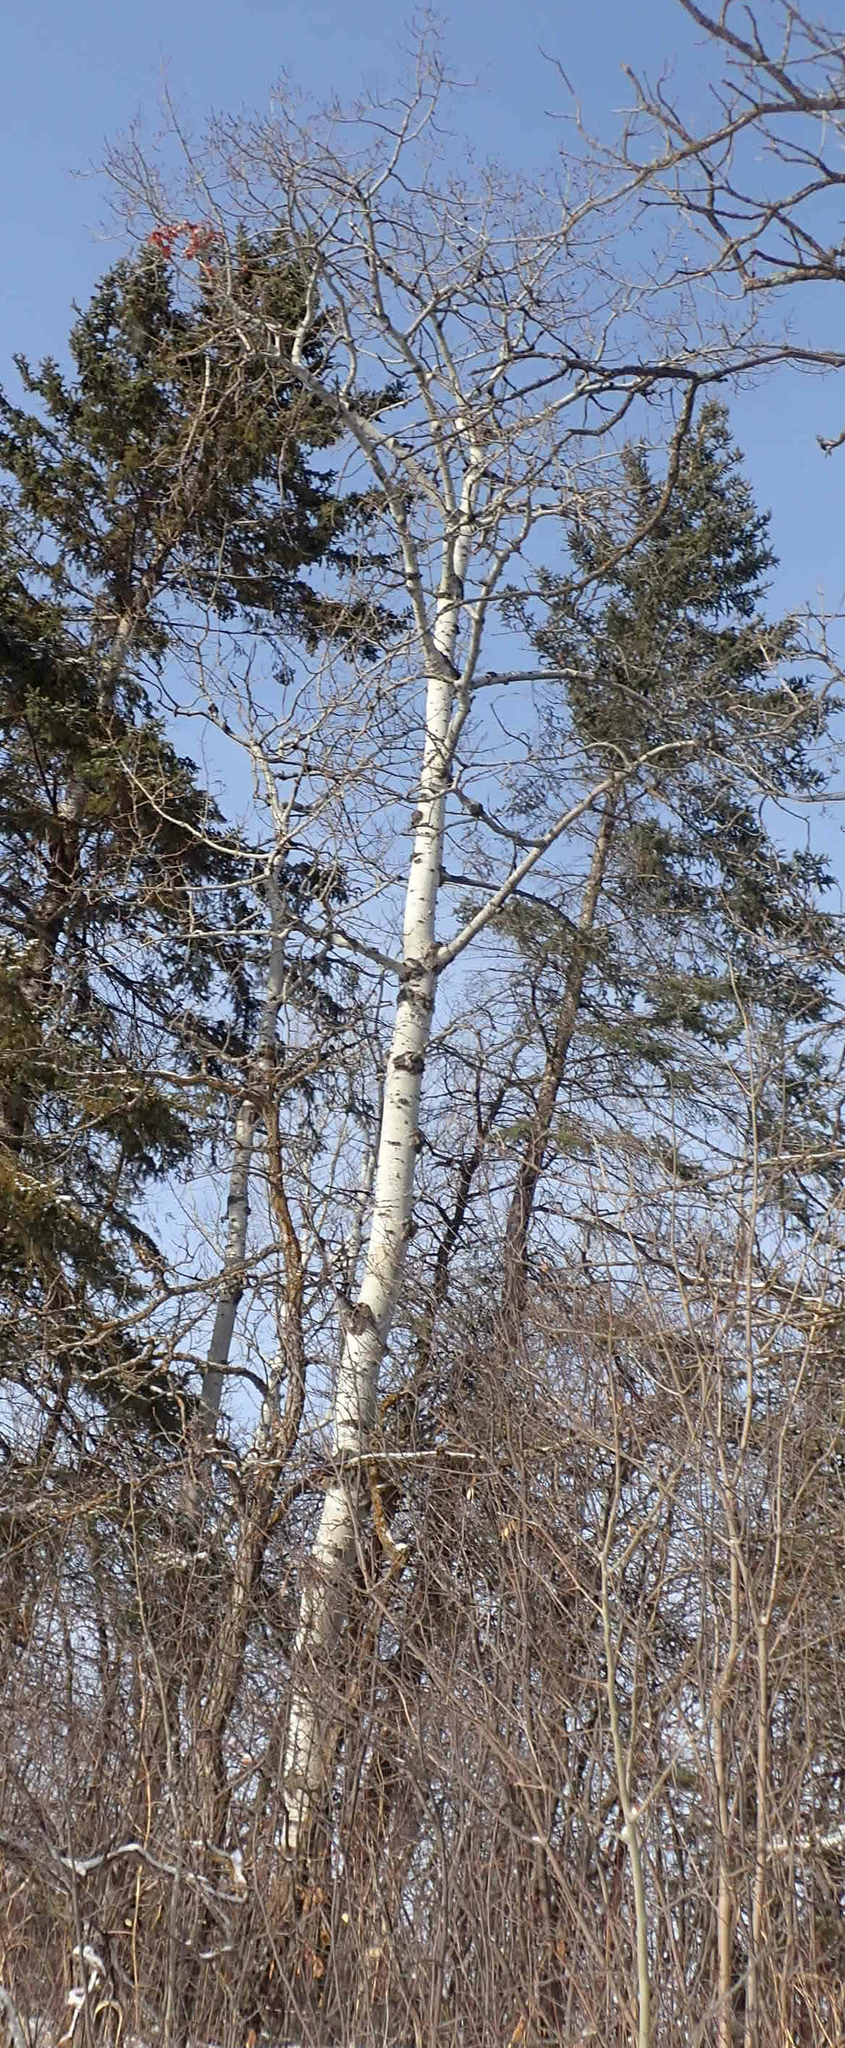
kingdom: Plantae
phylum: Tracheophyta
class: Magnoliopsida
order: Malpighiales
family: Salicaceae
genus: Populus
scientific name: Populus tremuloides
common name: Quaking aspen
